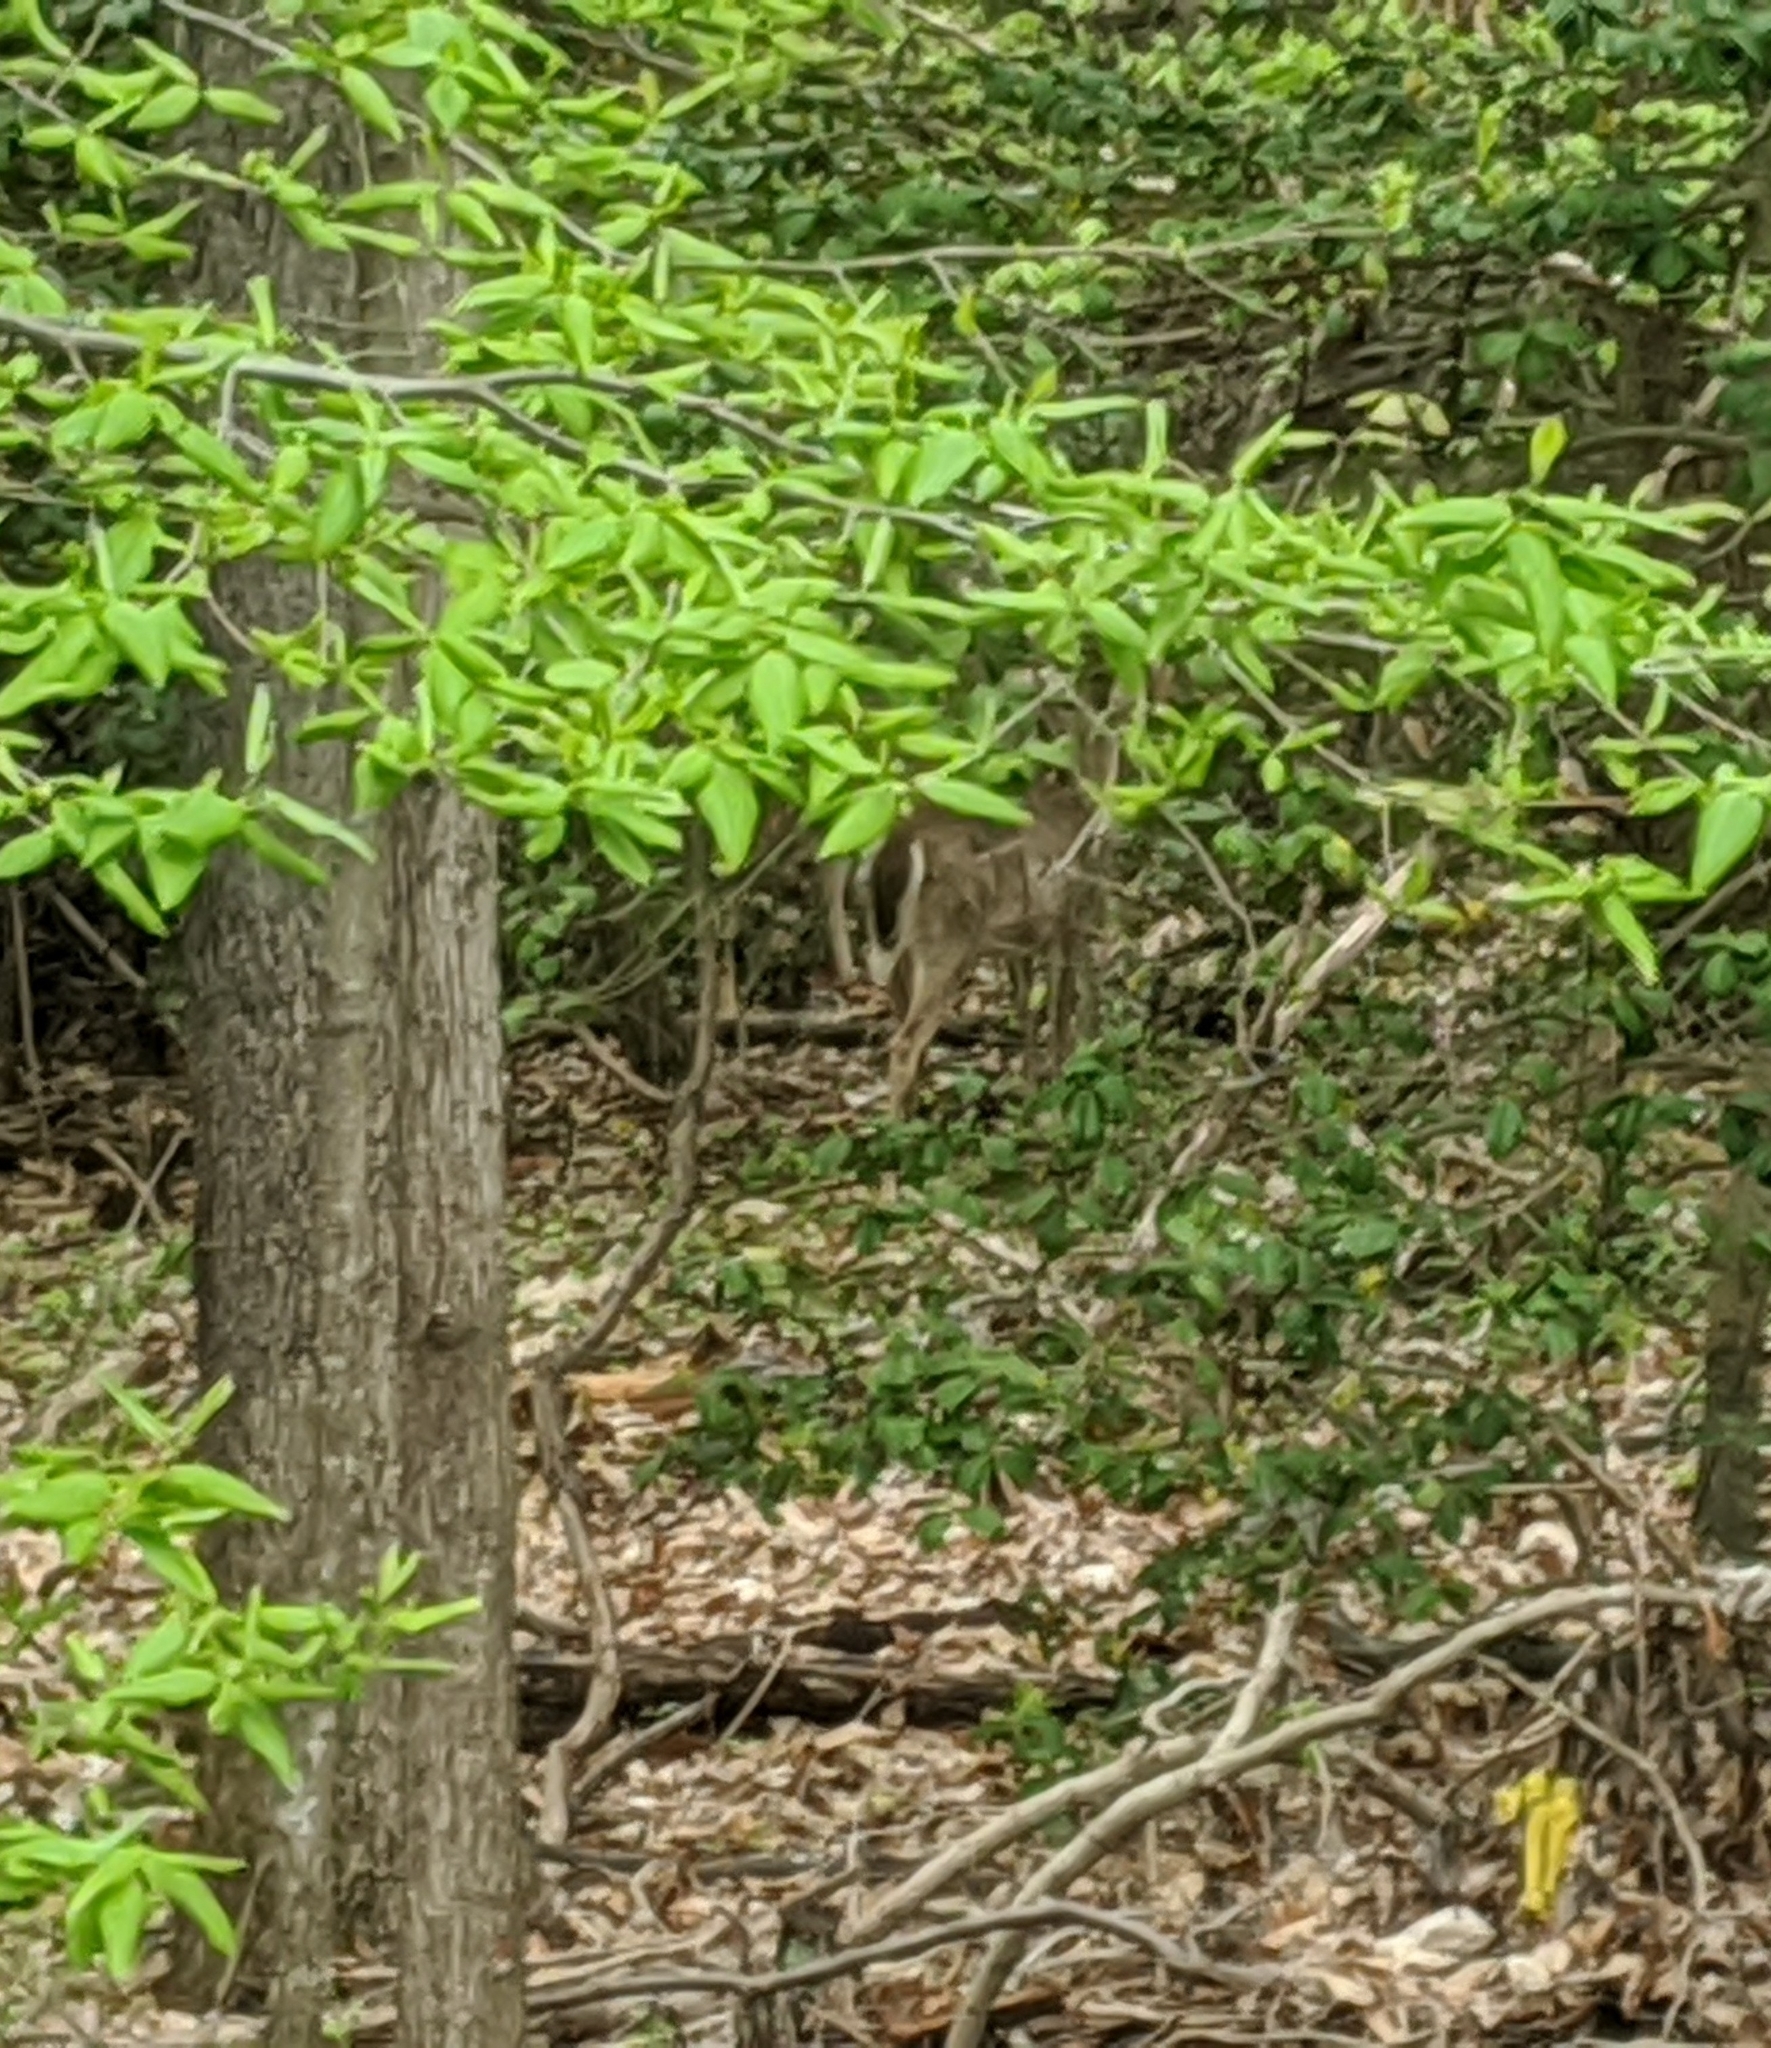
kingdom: Animalia
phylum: Chordata
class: Mammalia
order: Artiodactyla
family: Cervidae
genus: Odocoileus
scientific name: Odocoileus virginianus
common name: White-tailed deer
